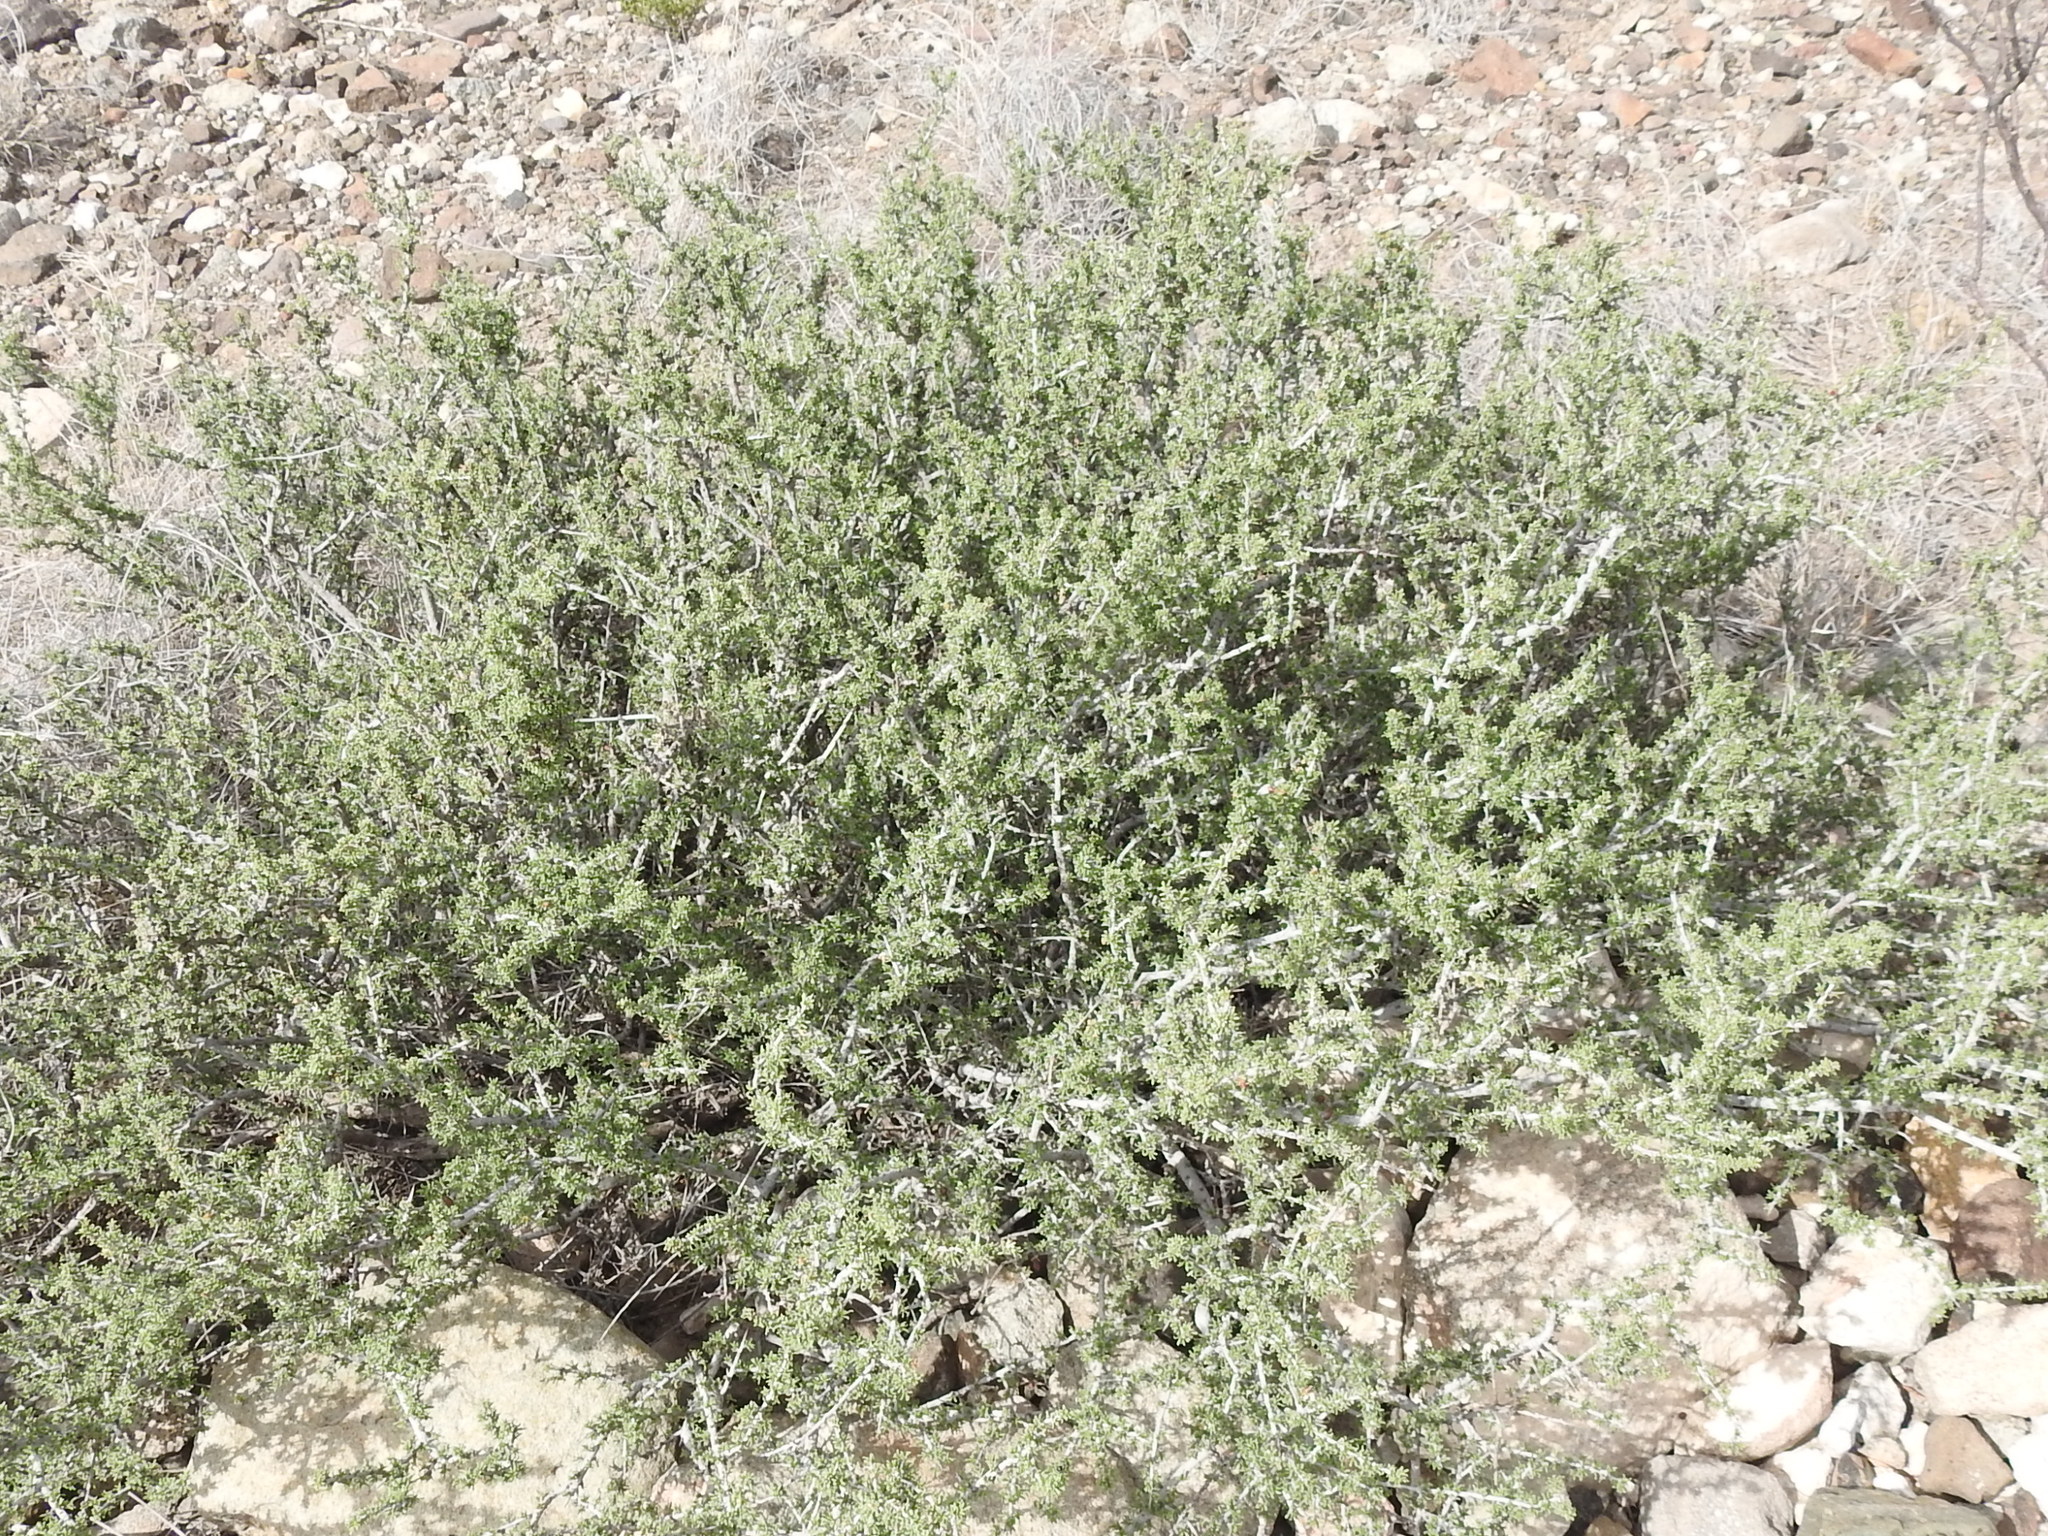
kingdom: Plantae
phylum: Tracheophyta
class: Magnoliopsida
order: Rosales
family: Rhamnaceae
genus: Condalia
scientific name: Condalia ericoides
